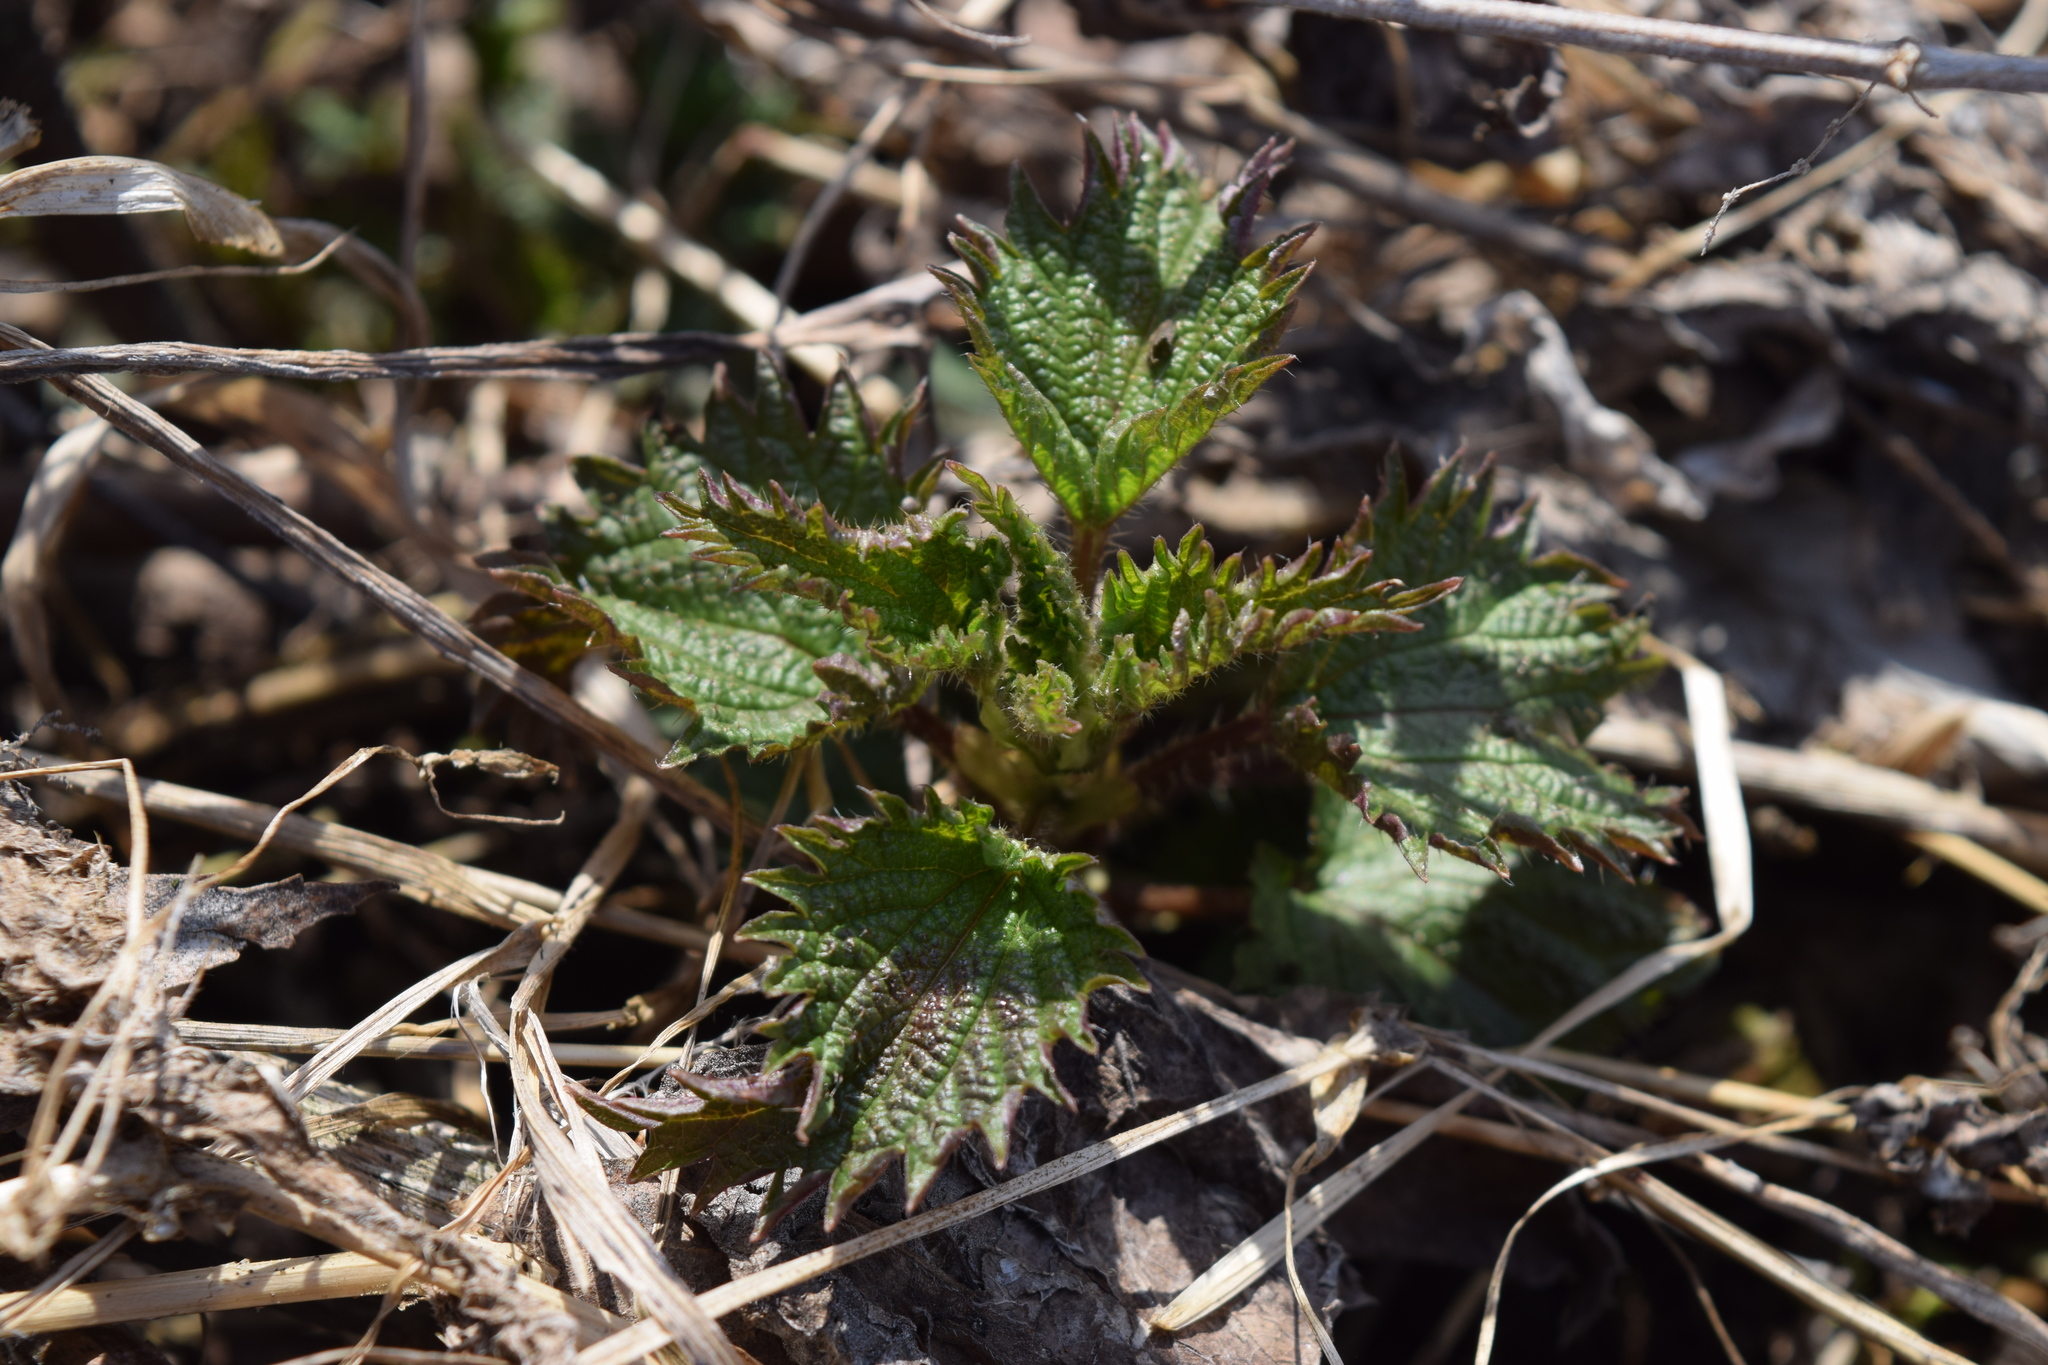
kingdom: Plantae
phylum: Tracheophyta
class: Magnoliopsida
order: Rosales
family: Urticaceae
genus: Urtica
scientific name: Urtica dioica
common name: Common nettle
